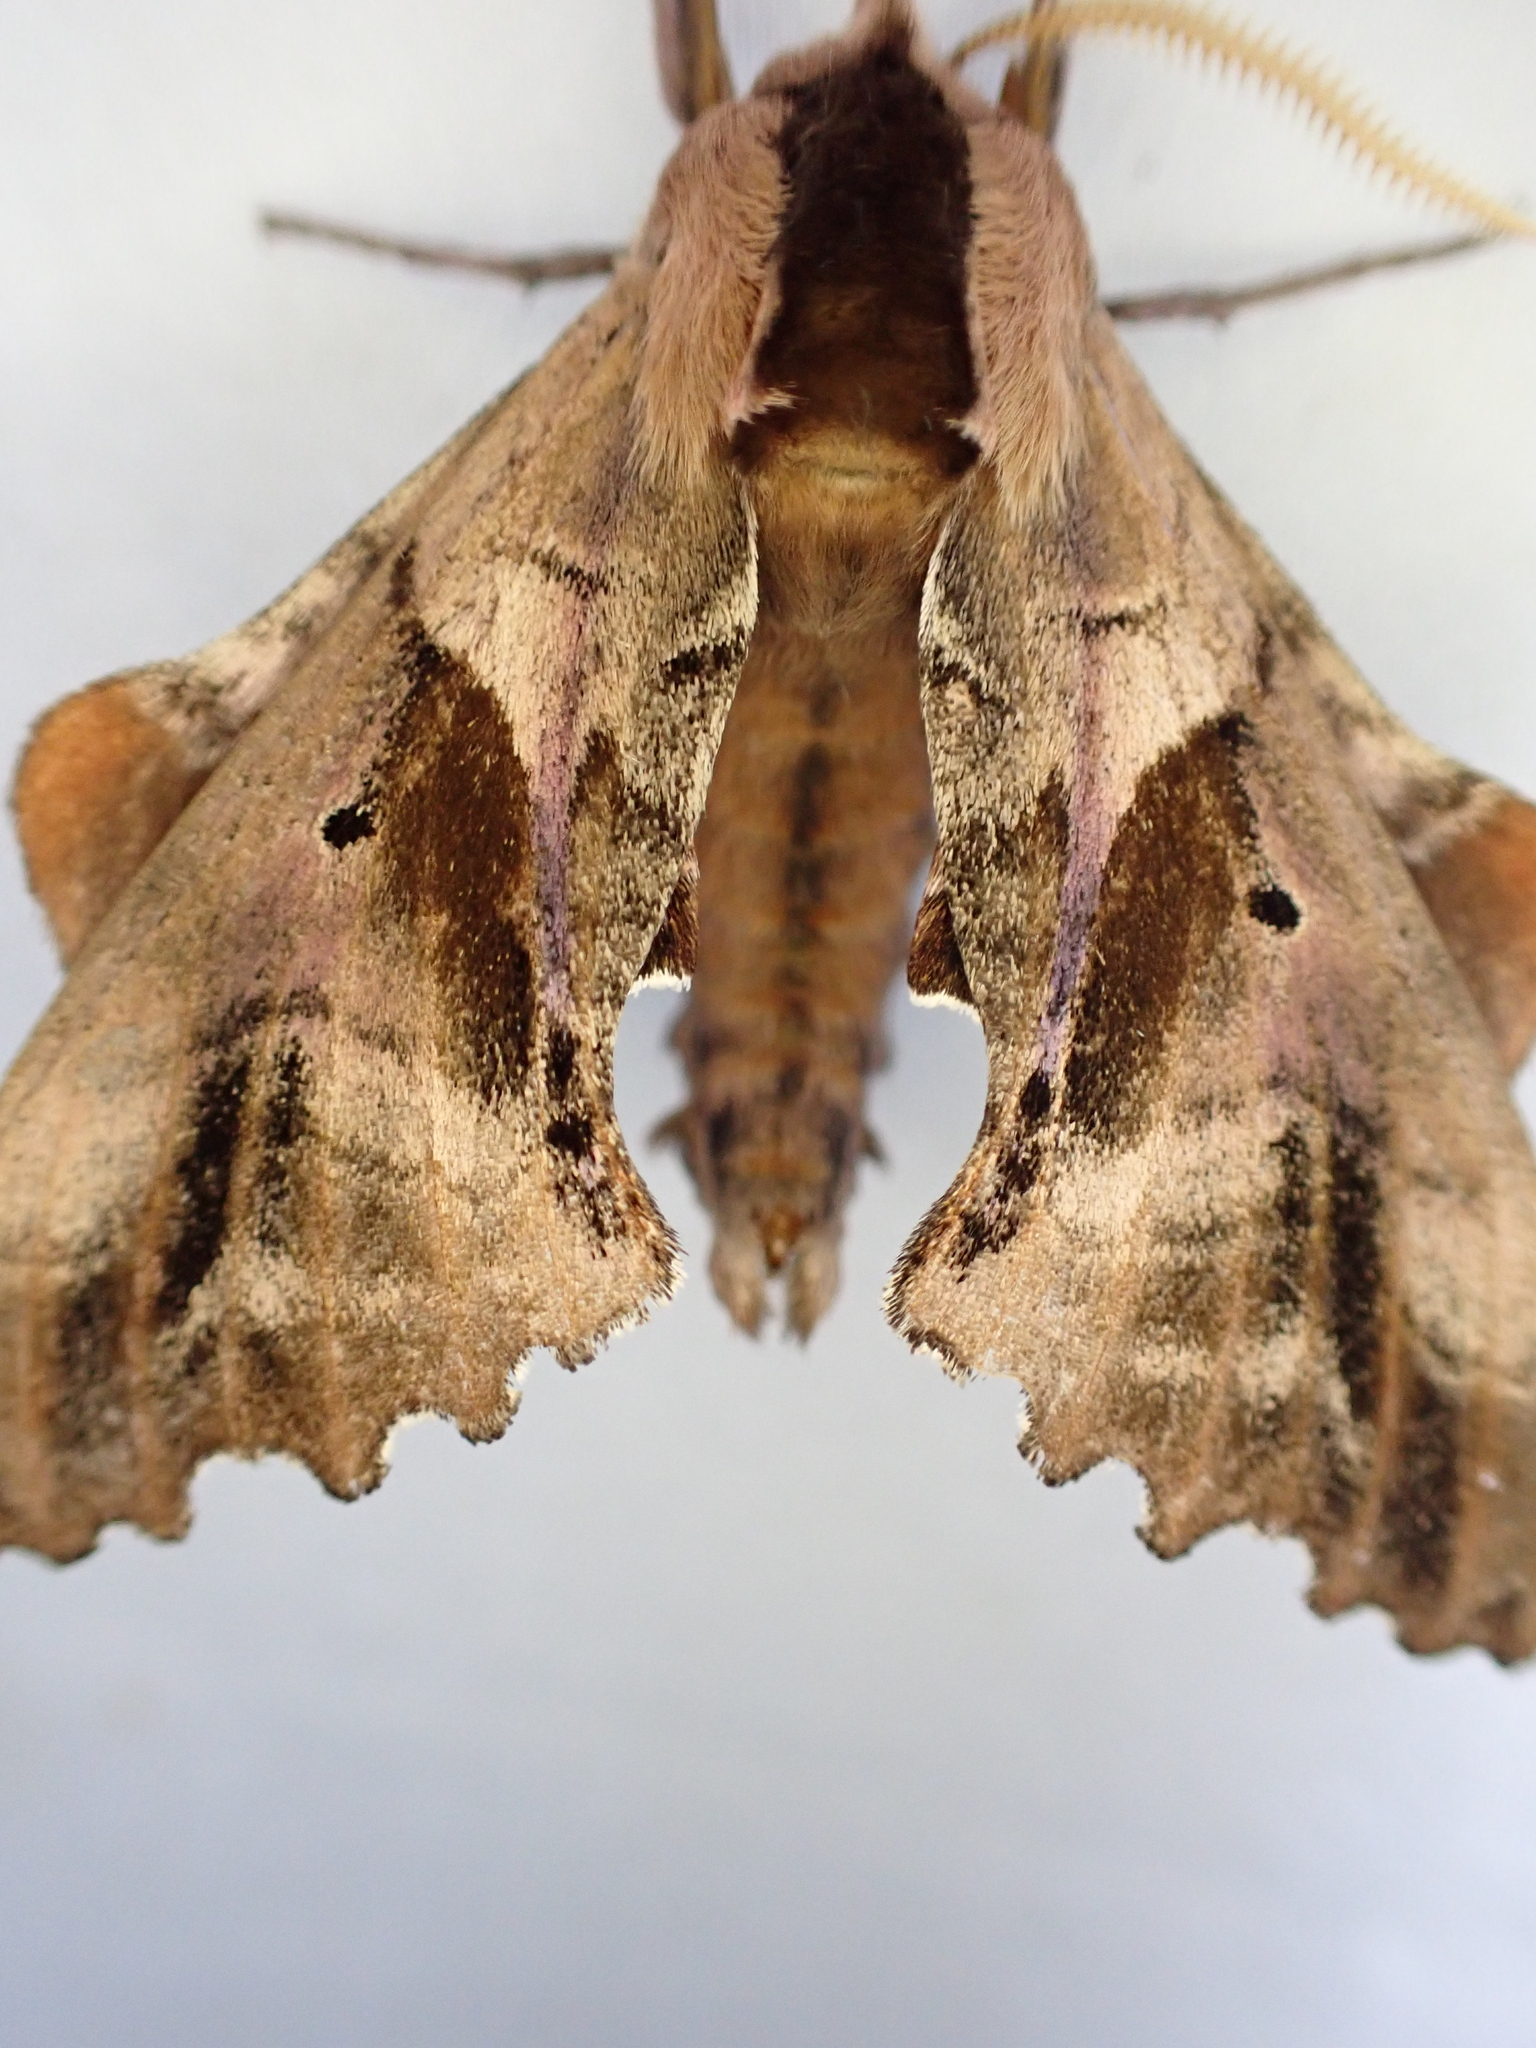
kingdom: Animalia
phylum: Arthropoda
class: Insecta
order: Lepidoptera
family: Sphingidae
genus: Paonias
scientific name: Paonias excaecata
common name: Blind-eyed sphinx
